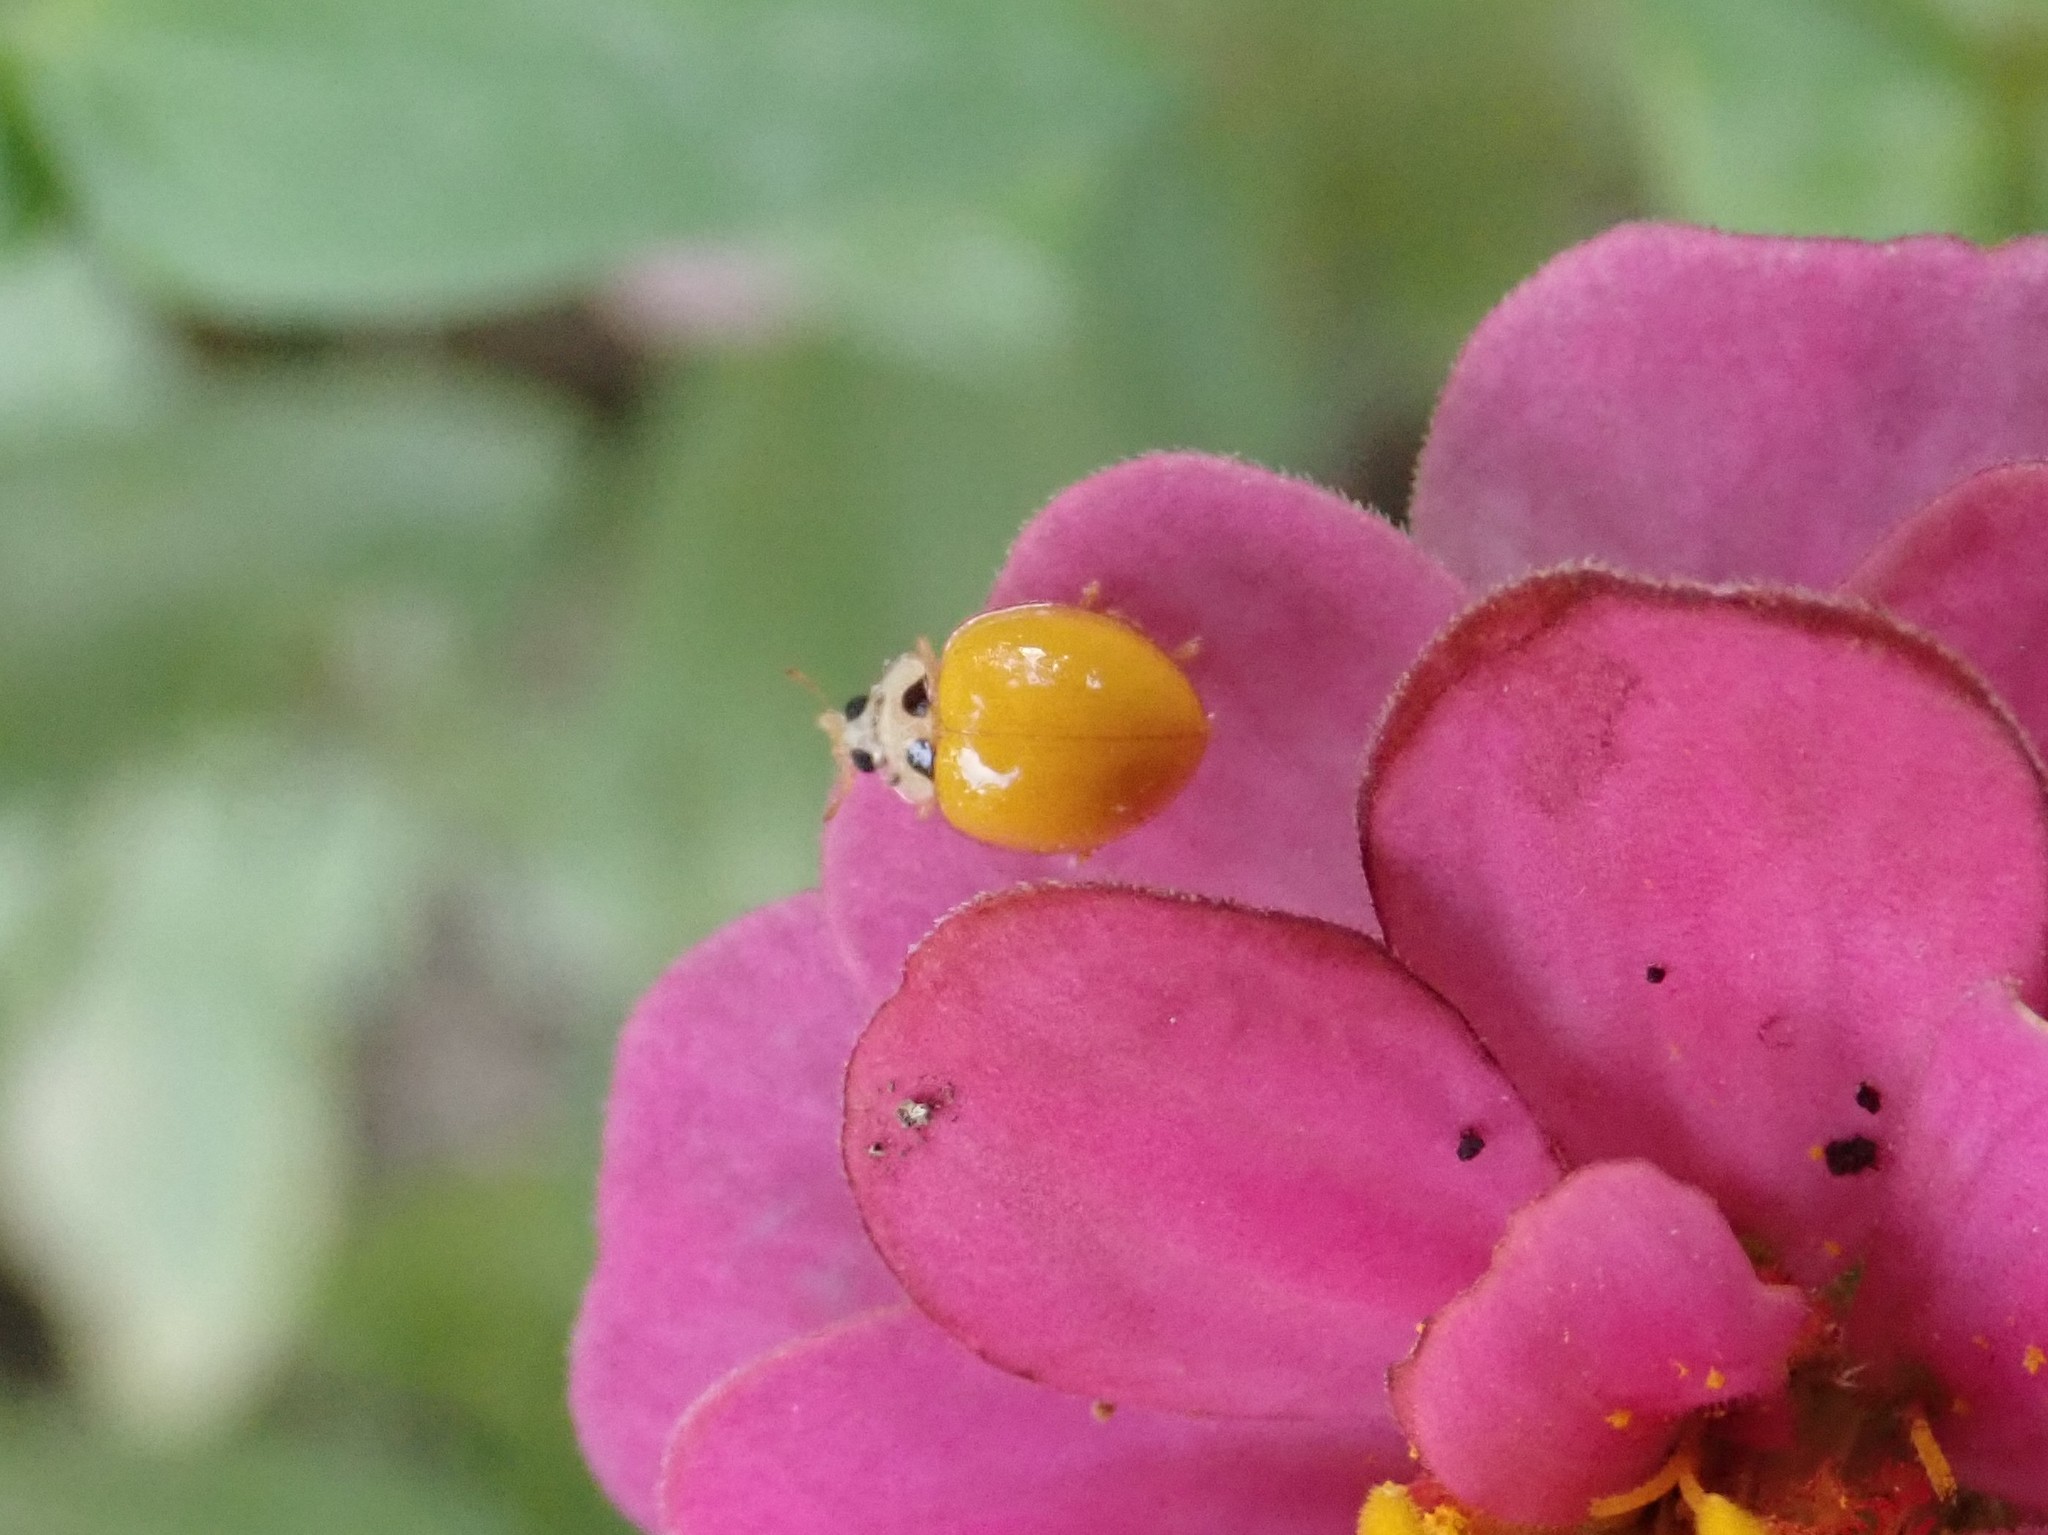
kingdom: Animalia
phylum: Arthropoda
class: Insecta
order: Coleoptera
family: Coccinellidae
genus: Illeis
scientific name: Illeis koebelei
